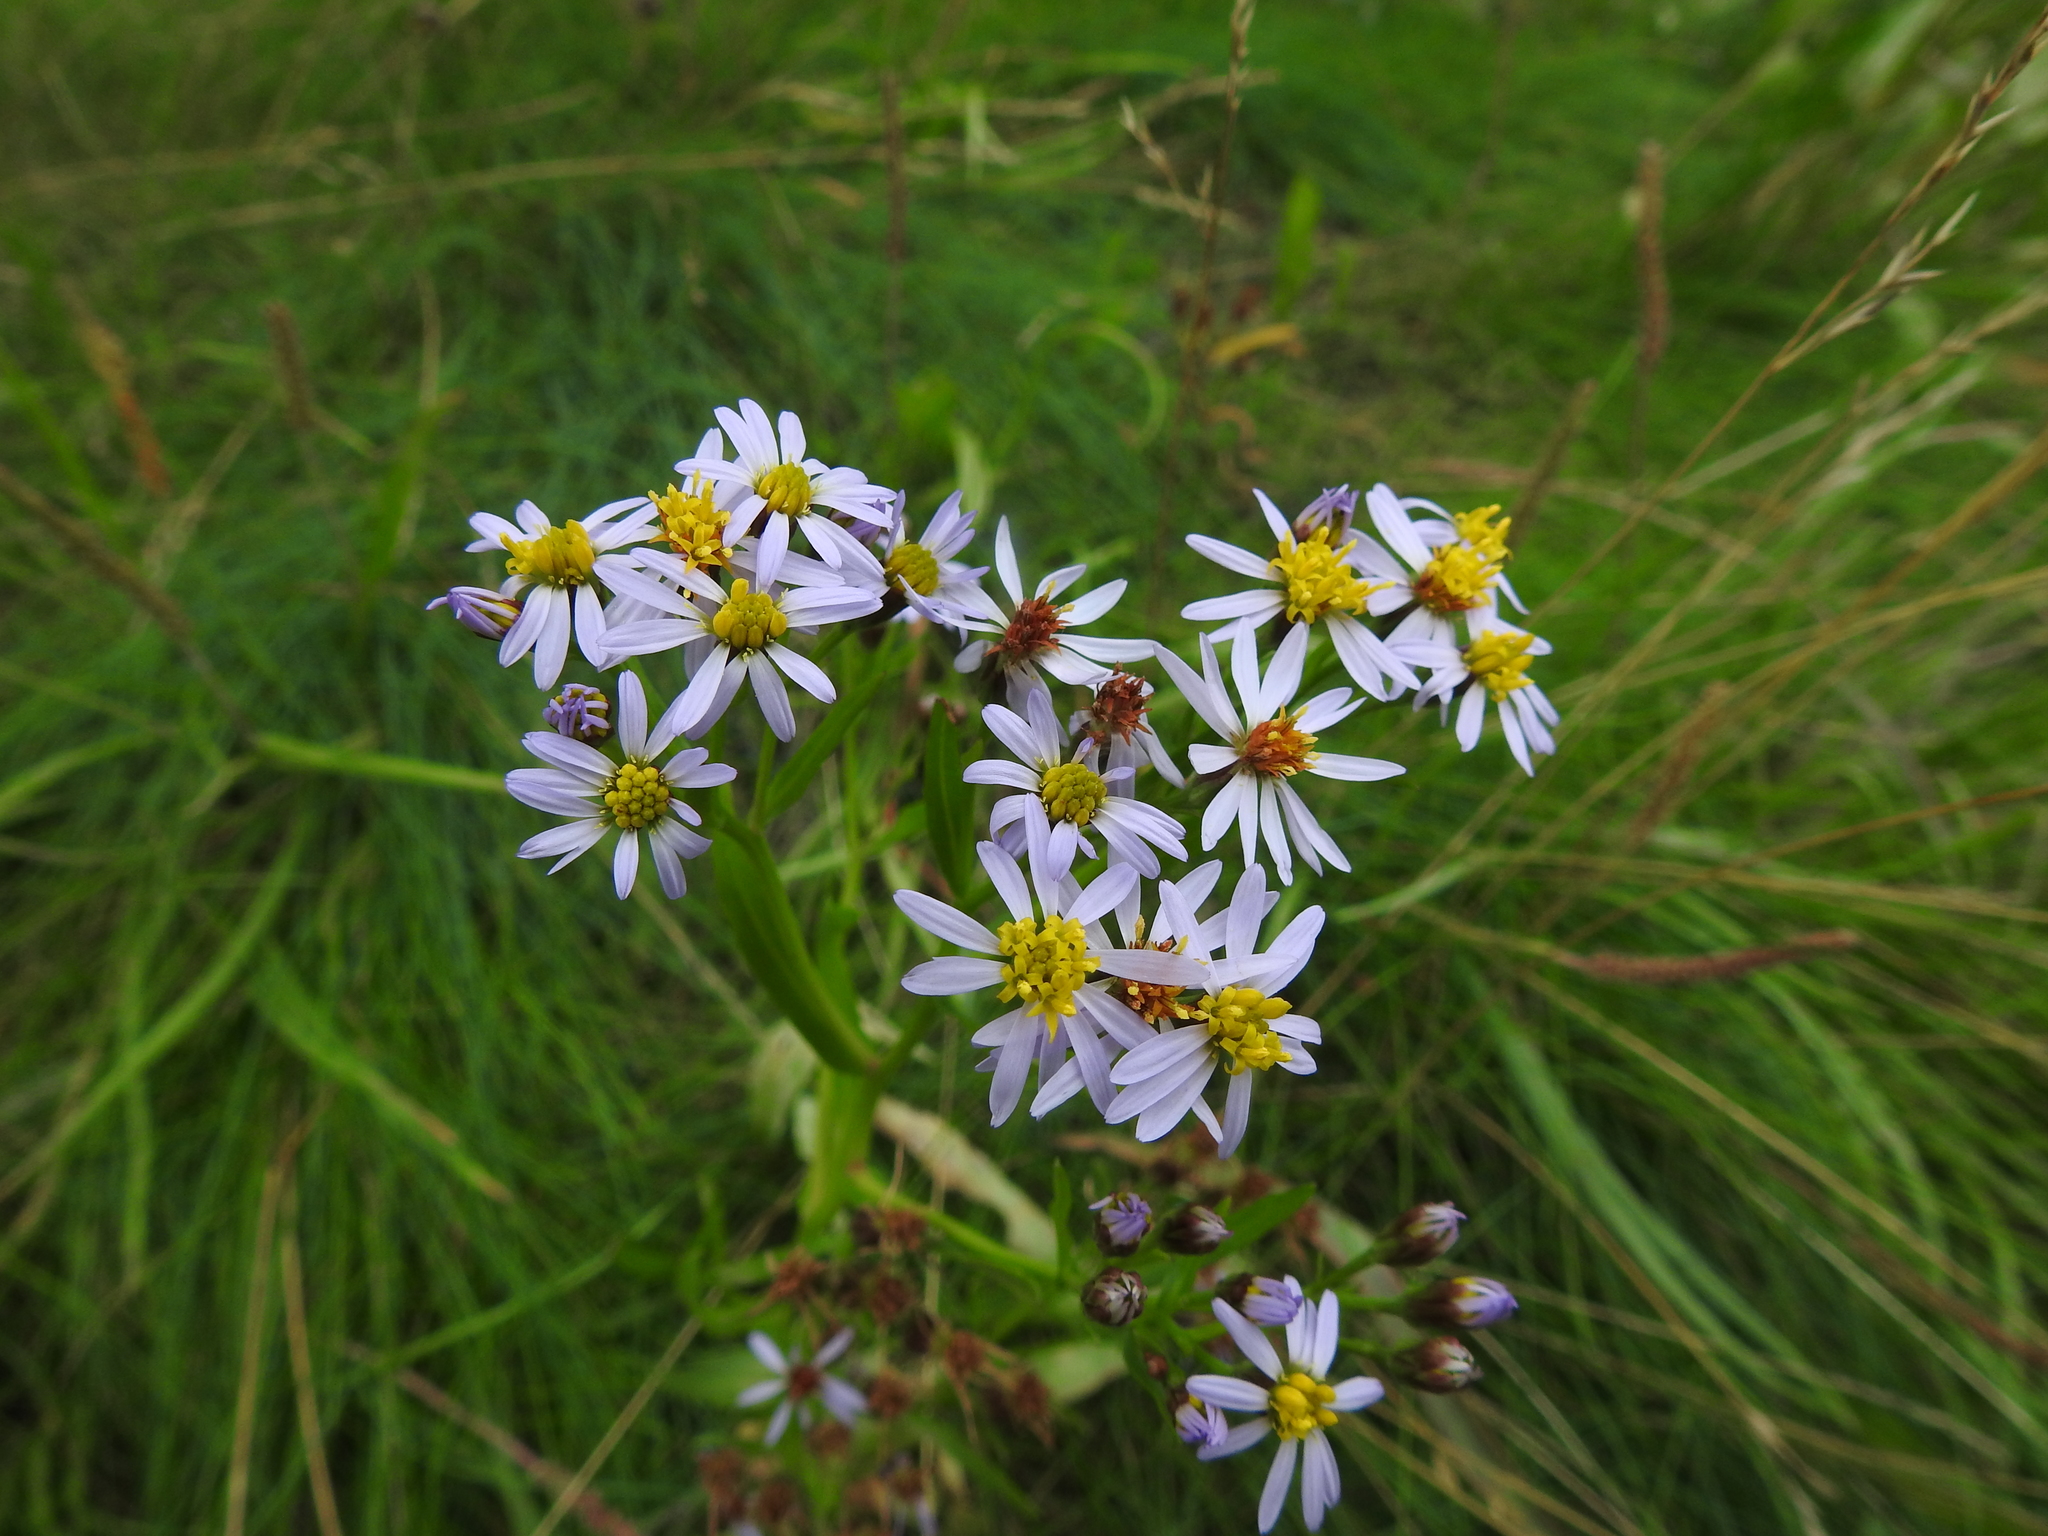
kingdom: Plantae
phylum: Tracheophyta
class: Magnoliopsida
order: Asterales
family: Asteraceae
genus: Tripolium
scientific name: Tripolium pannonicum
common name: Sea aster
